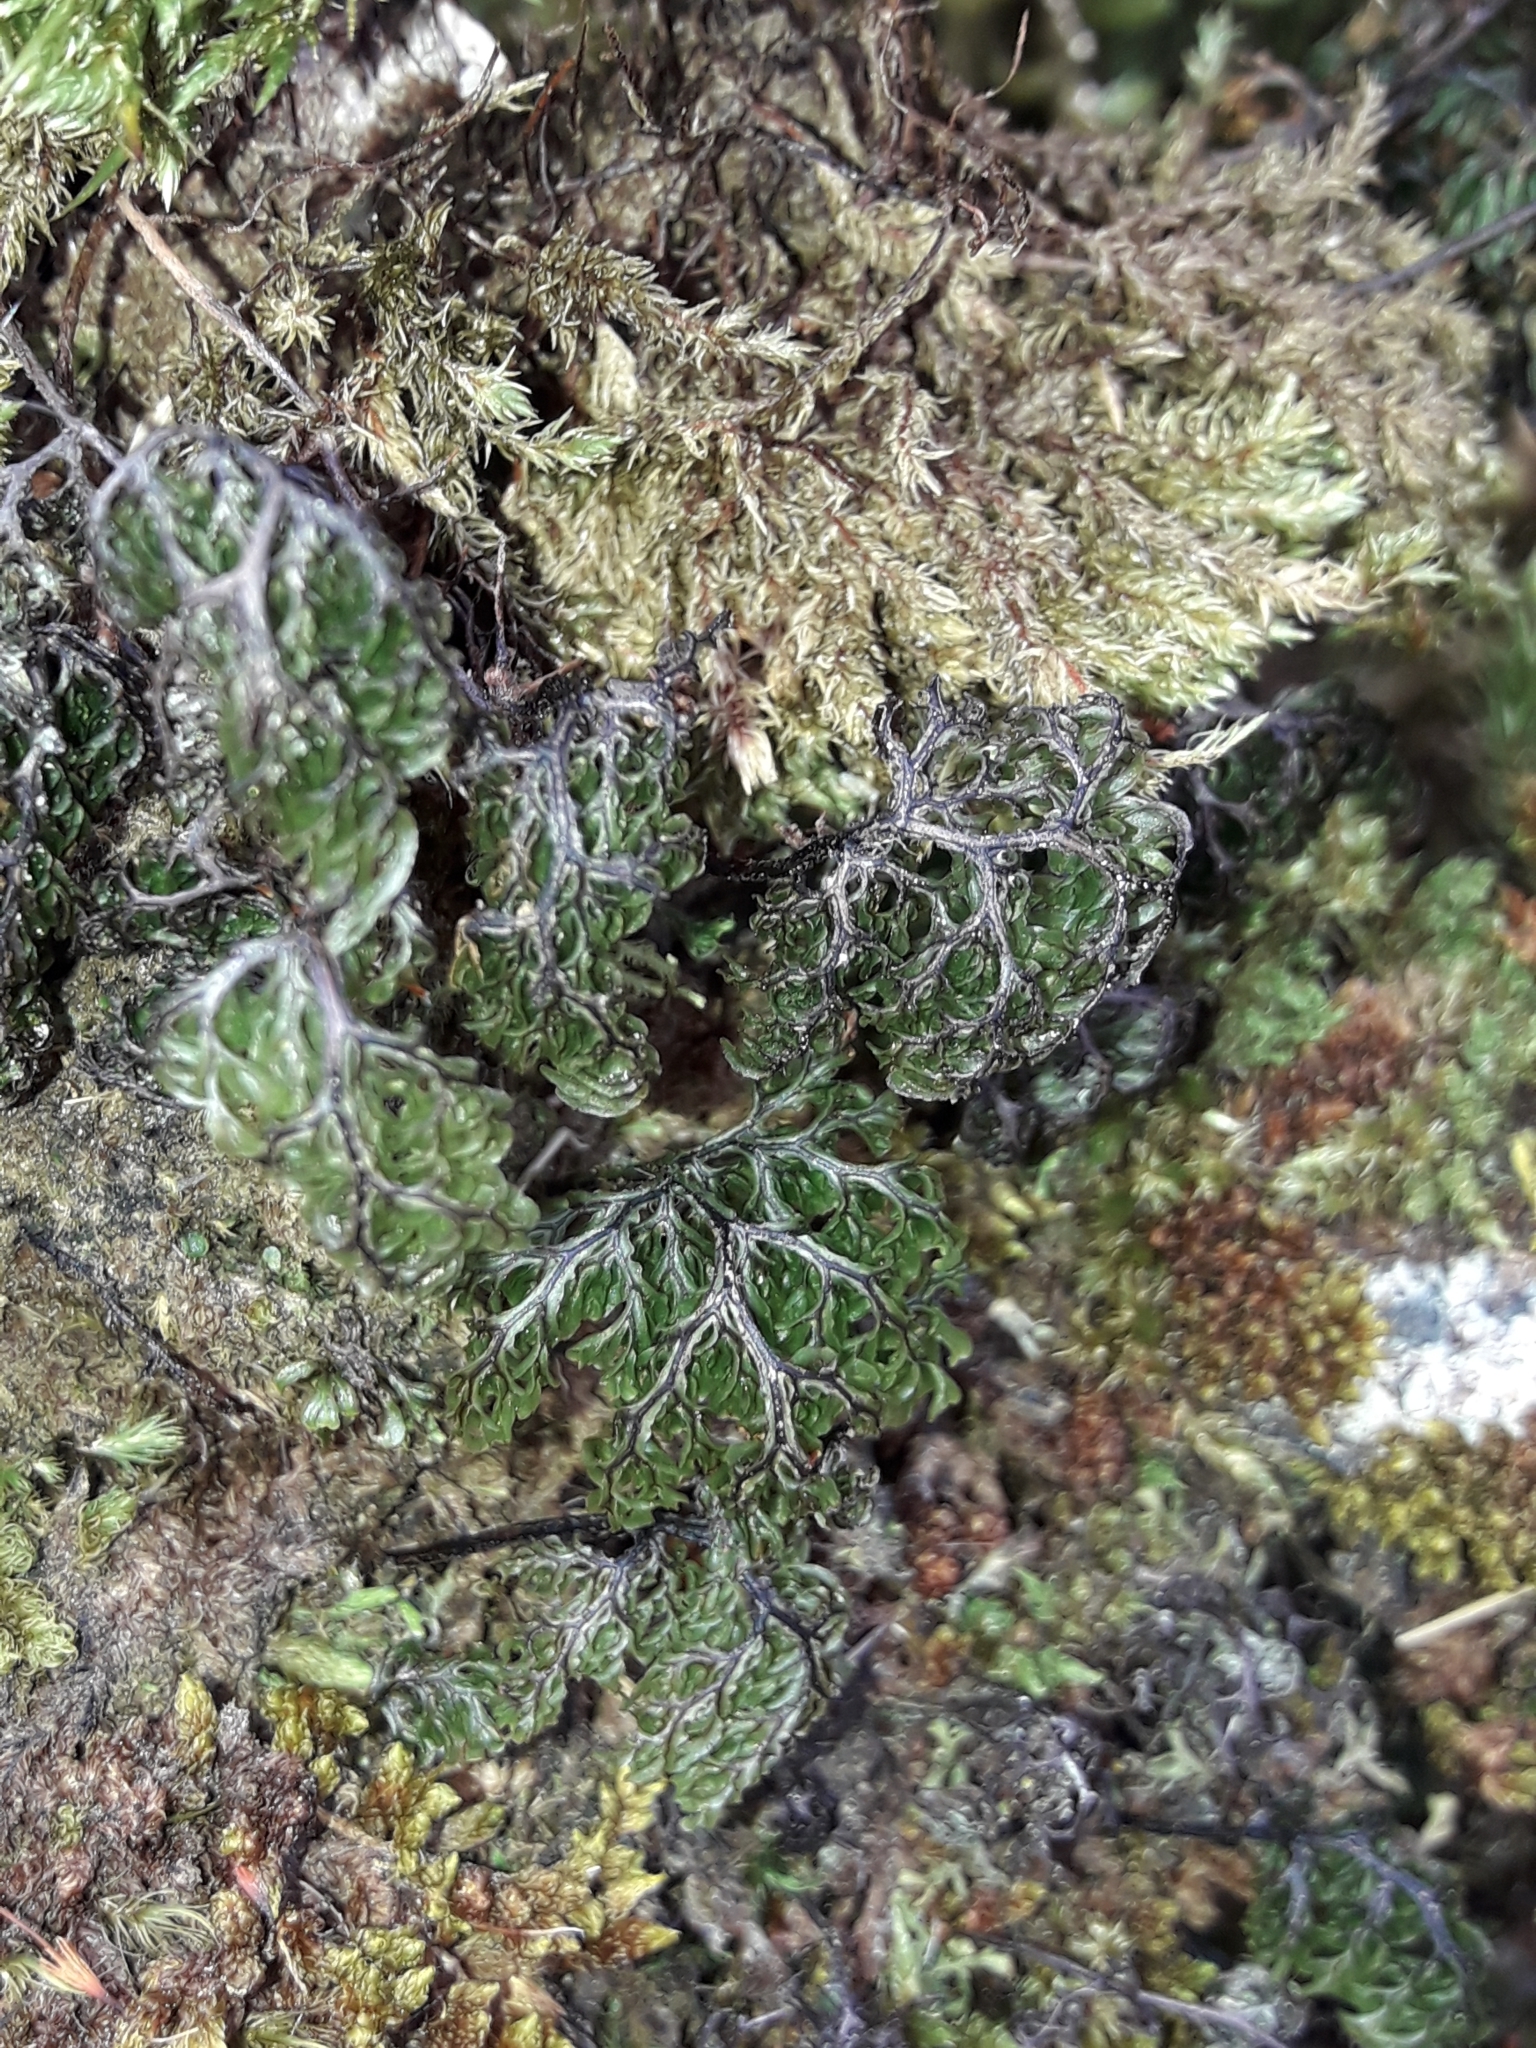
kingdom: Plantae
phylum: Tracheophyta
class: Polypodiopsida
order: Hymenophyllales
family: Hymenophyllaceae
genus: Hymenophyllum
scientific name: Hymenophyllum villosum
